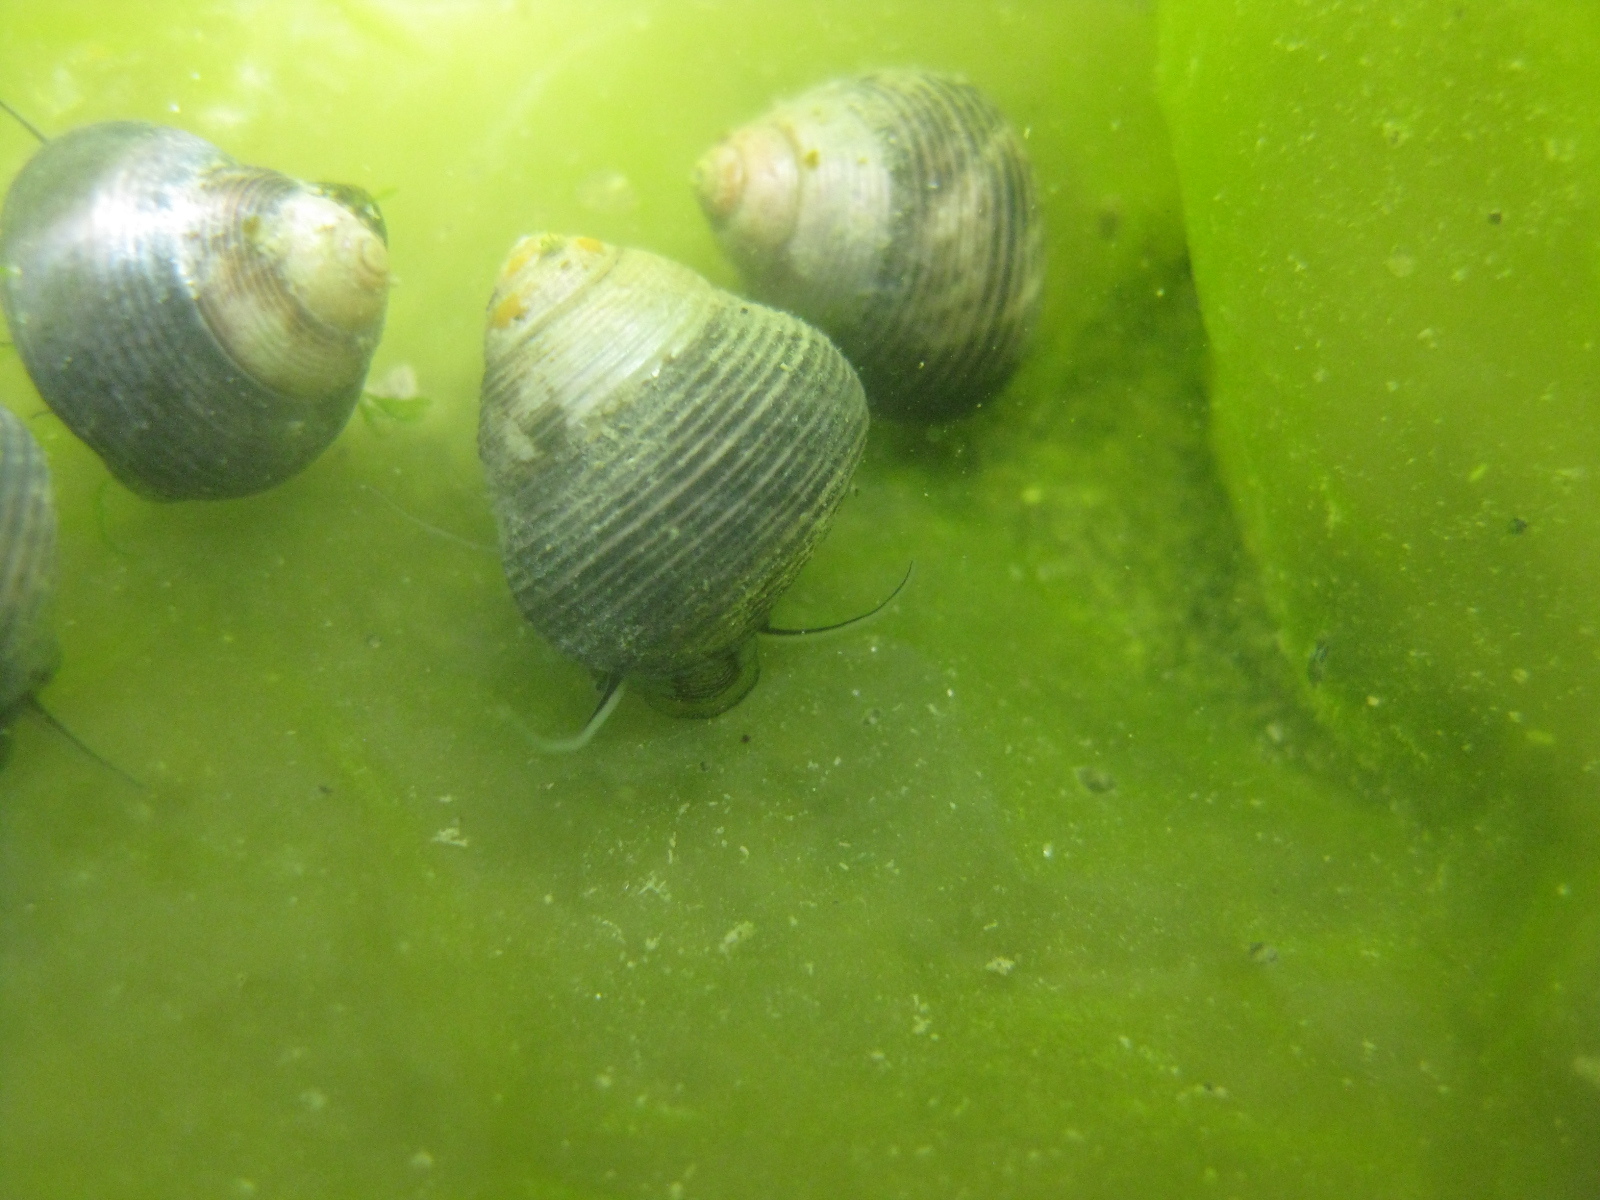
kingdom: Animalia
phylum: Mollusca
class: Gastropoda
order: Trochida
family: Trochidae
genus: Micrelenchus
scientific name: Micrelenchus huttonii
